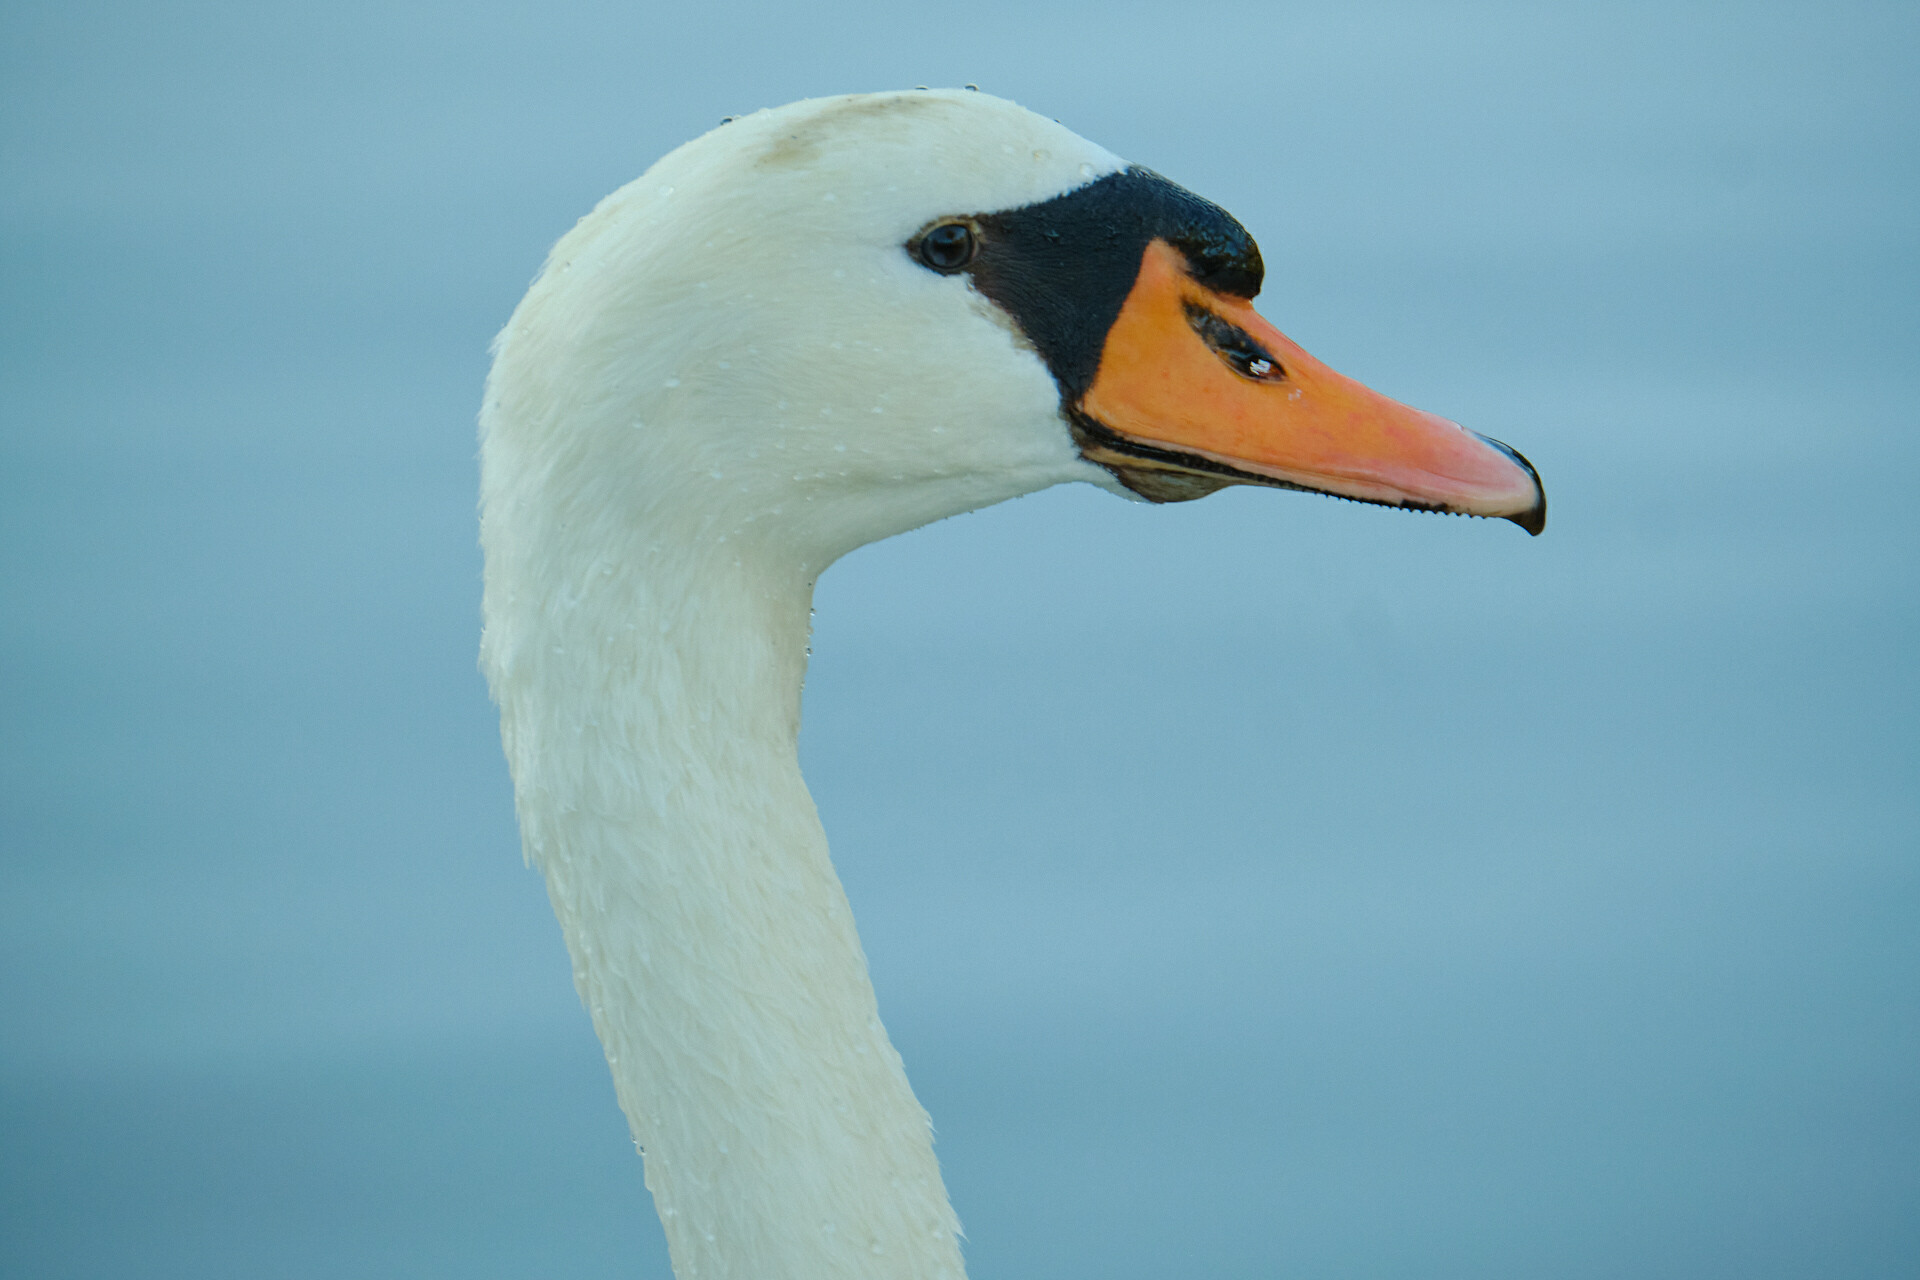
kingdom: Animalia
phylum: Chordata
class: Aves
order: Anseriformes
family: Anatidae
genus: Cygnus
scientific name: Cygnus olor
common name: Mute swan
